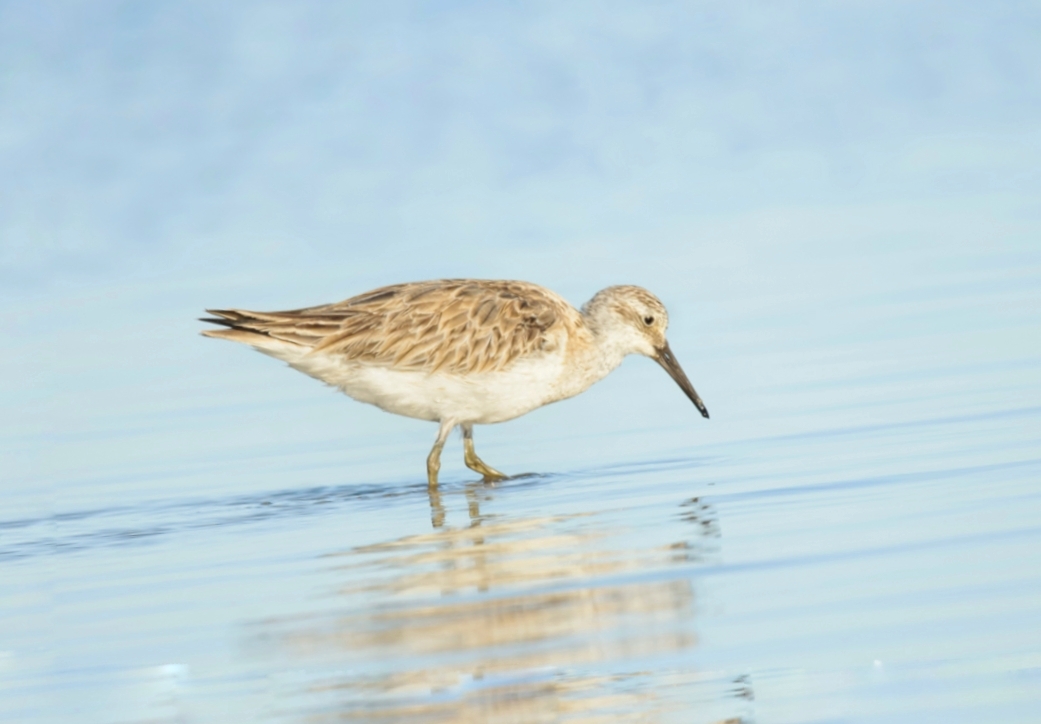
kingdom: Animalia
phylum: Chordata
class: Aves
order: Charadriiformes
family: Scolopacidae
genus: Calidris
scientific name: Calidris tenuirostris
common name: Great knot
